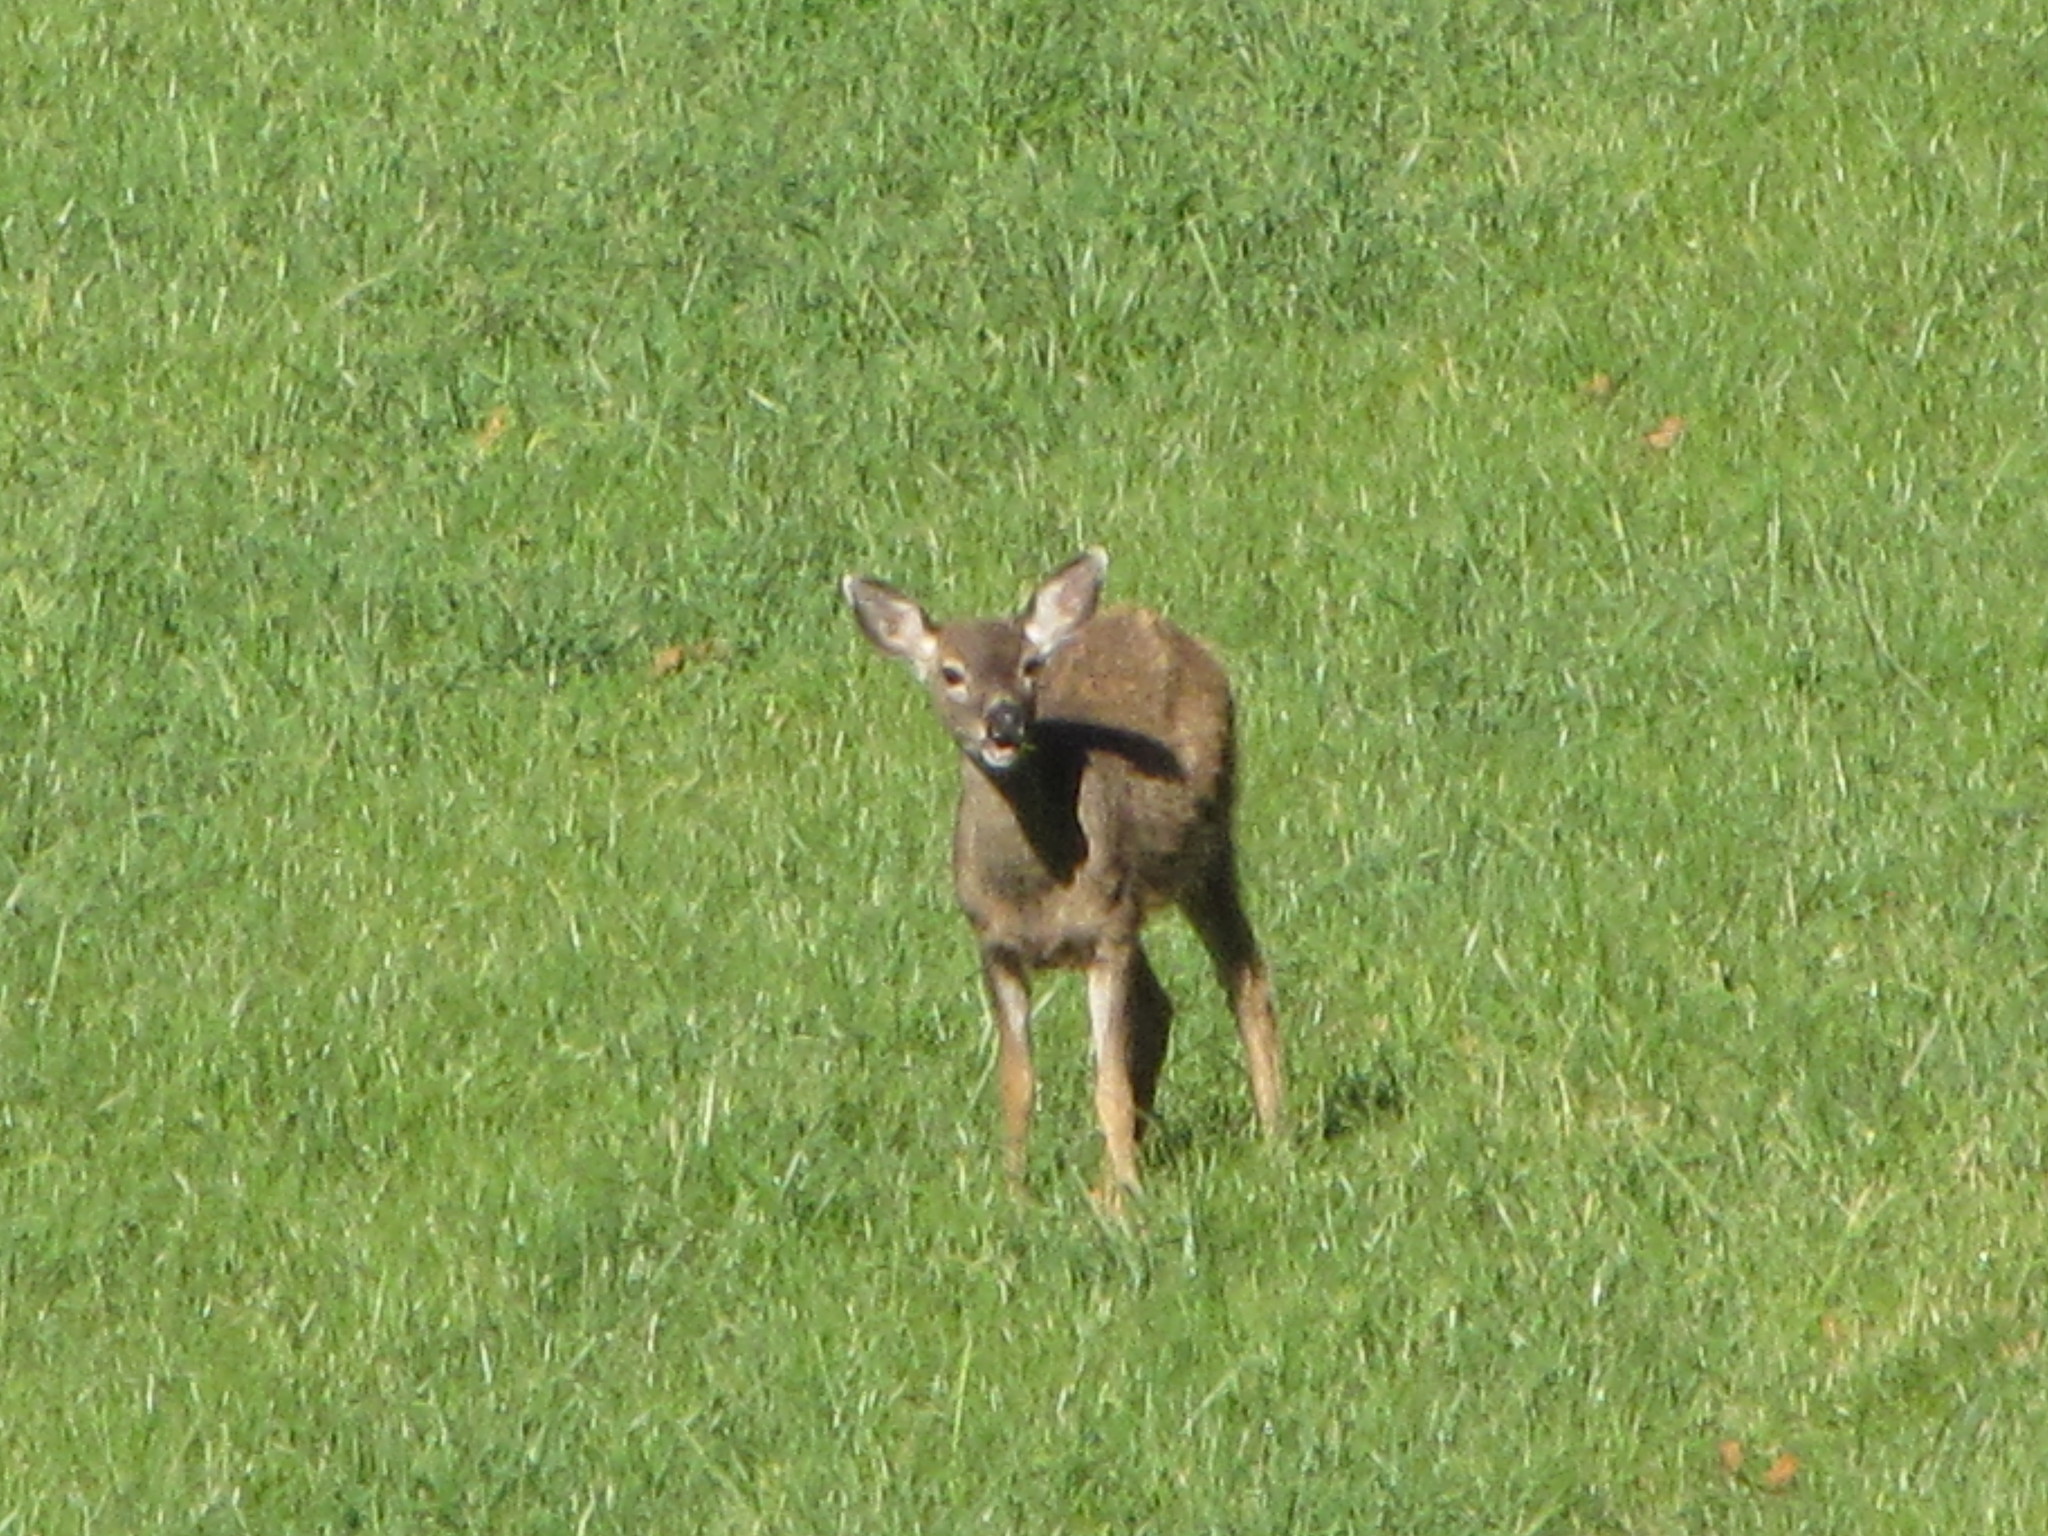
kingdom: Animalia
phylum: Chordata
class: Mammalia
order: Artiodactyla
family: Cervidae
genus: Odocoileus
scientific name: Odocoileus hemionus
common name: Mule deer
